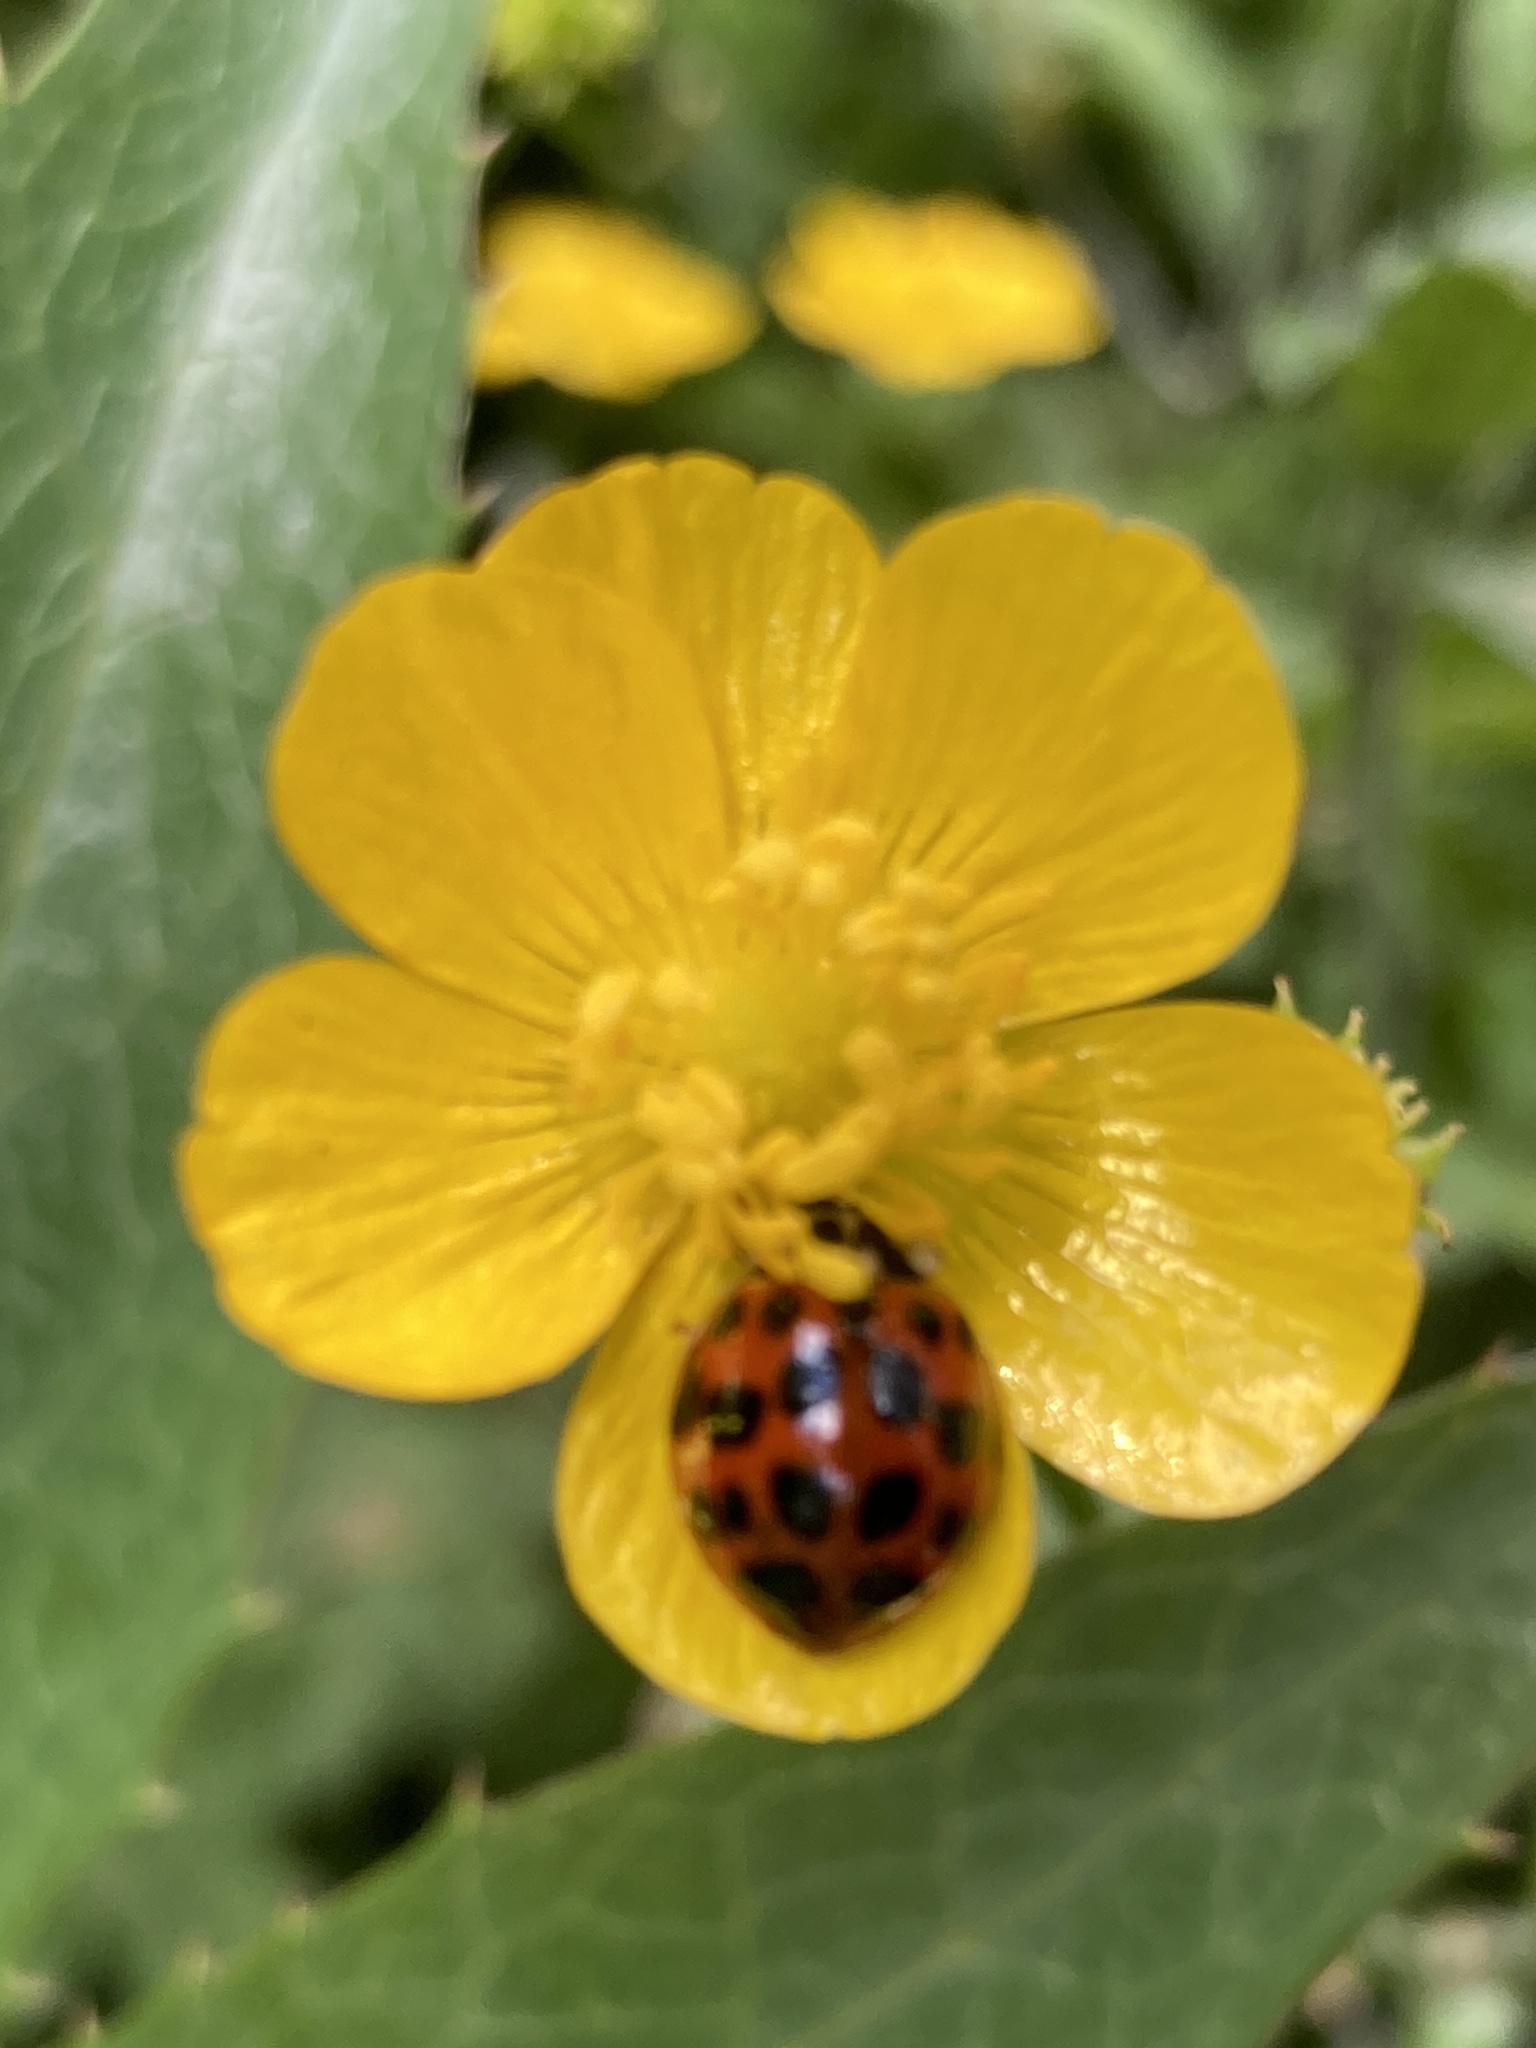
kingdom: Animalia
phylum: Arthropoda
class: Insecta
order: Coleoptera
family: Coccinellidae
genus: Harmonia
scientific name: Harmonia axyridis
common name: Harlequin ladybird
